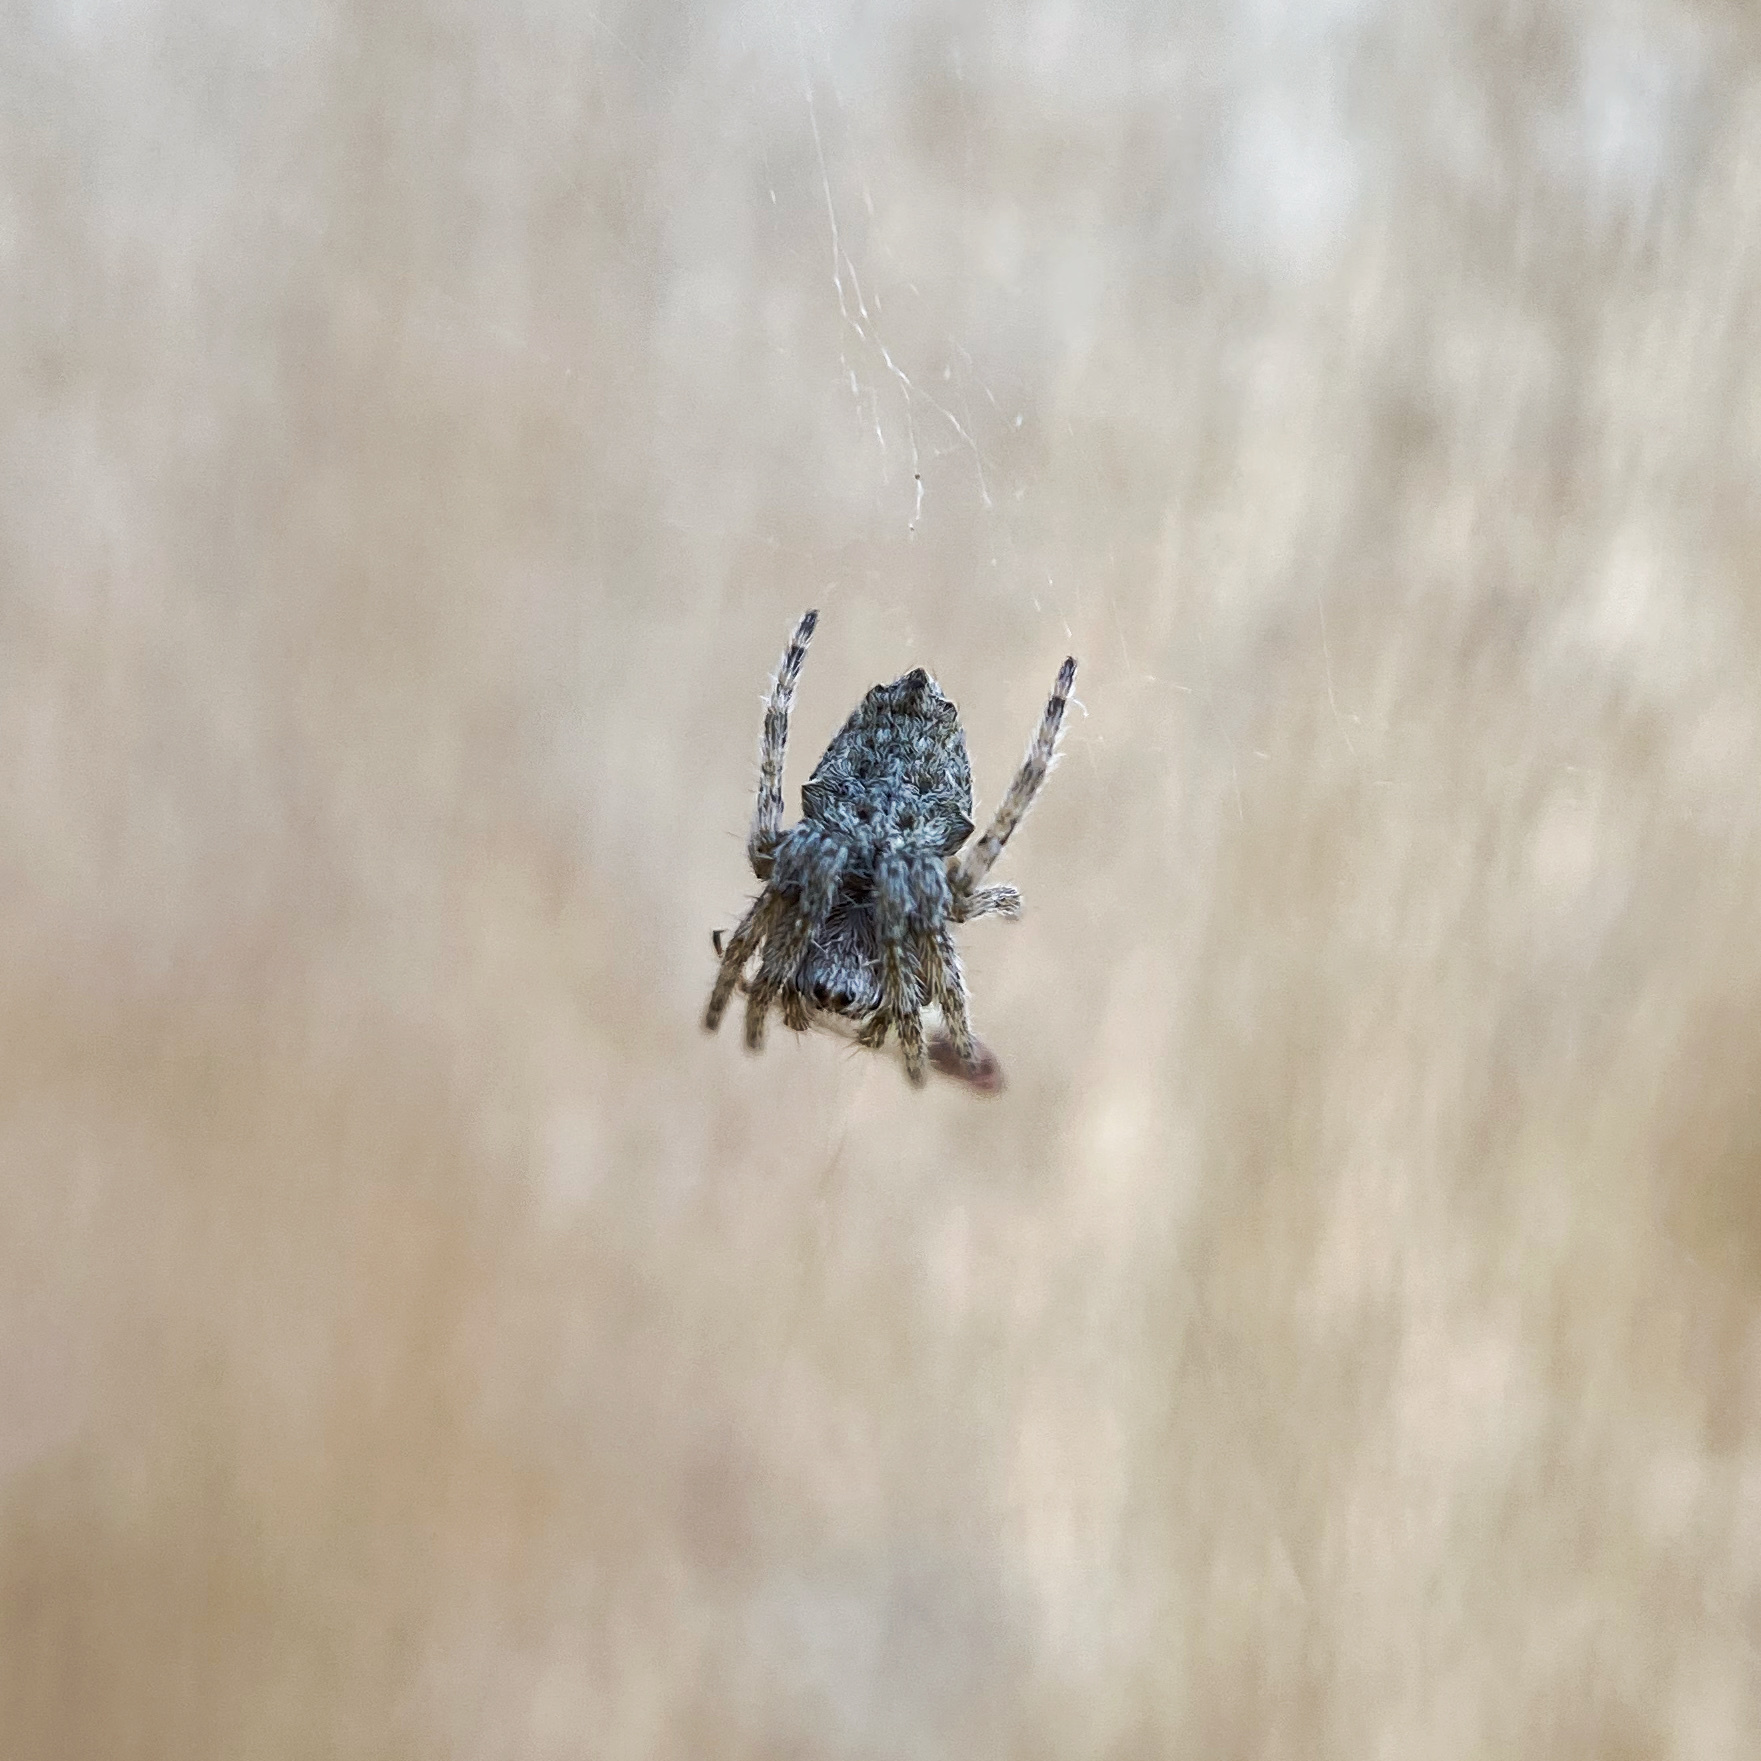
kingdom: Animalia
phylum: Arthropoda
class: Arachnida
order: Araneae
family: Araneidae
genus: Eriophora
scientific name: Eriophora pustulosa
